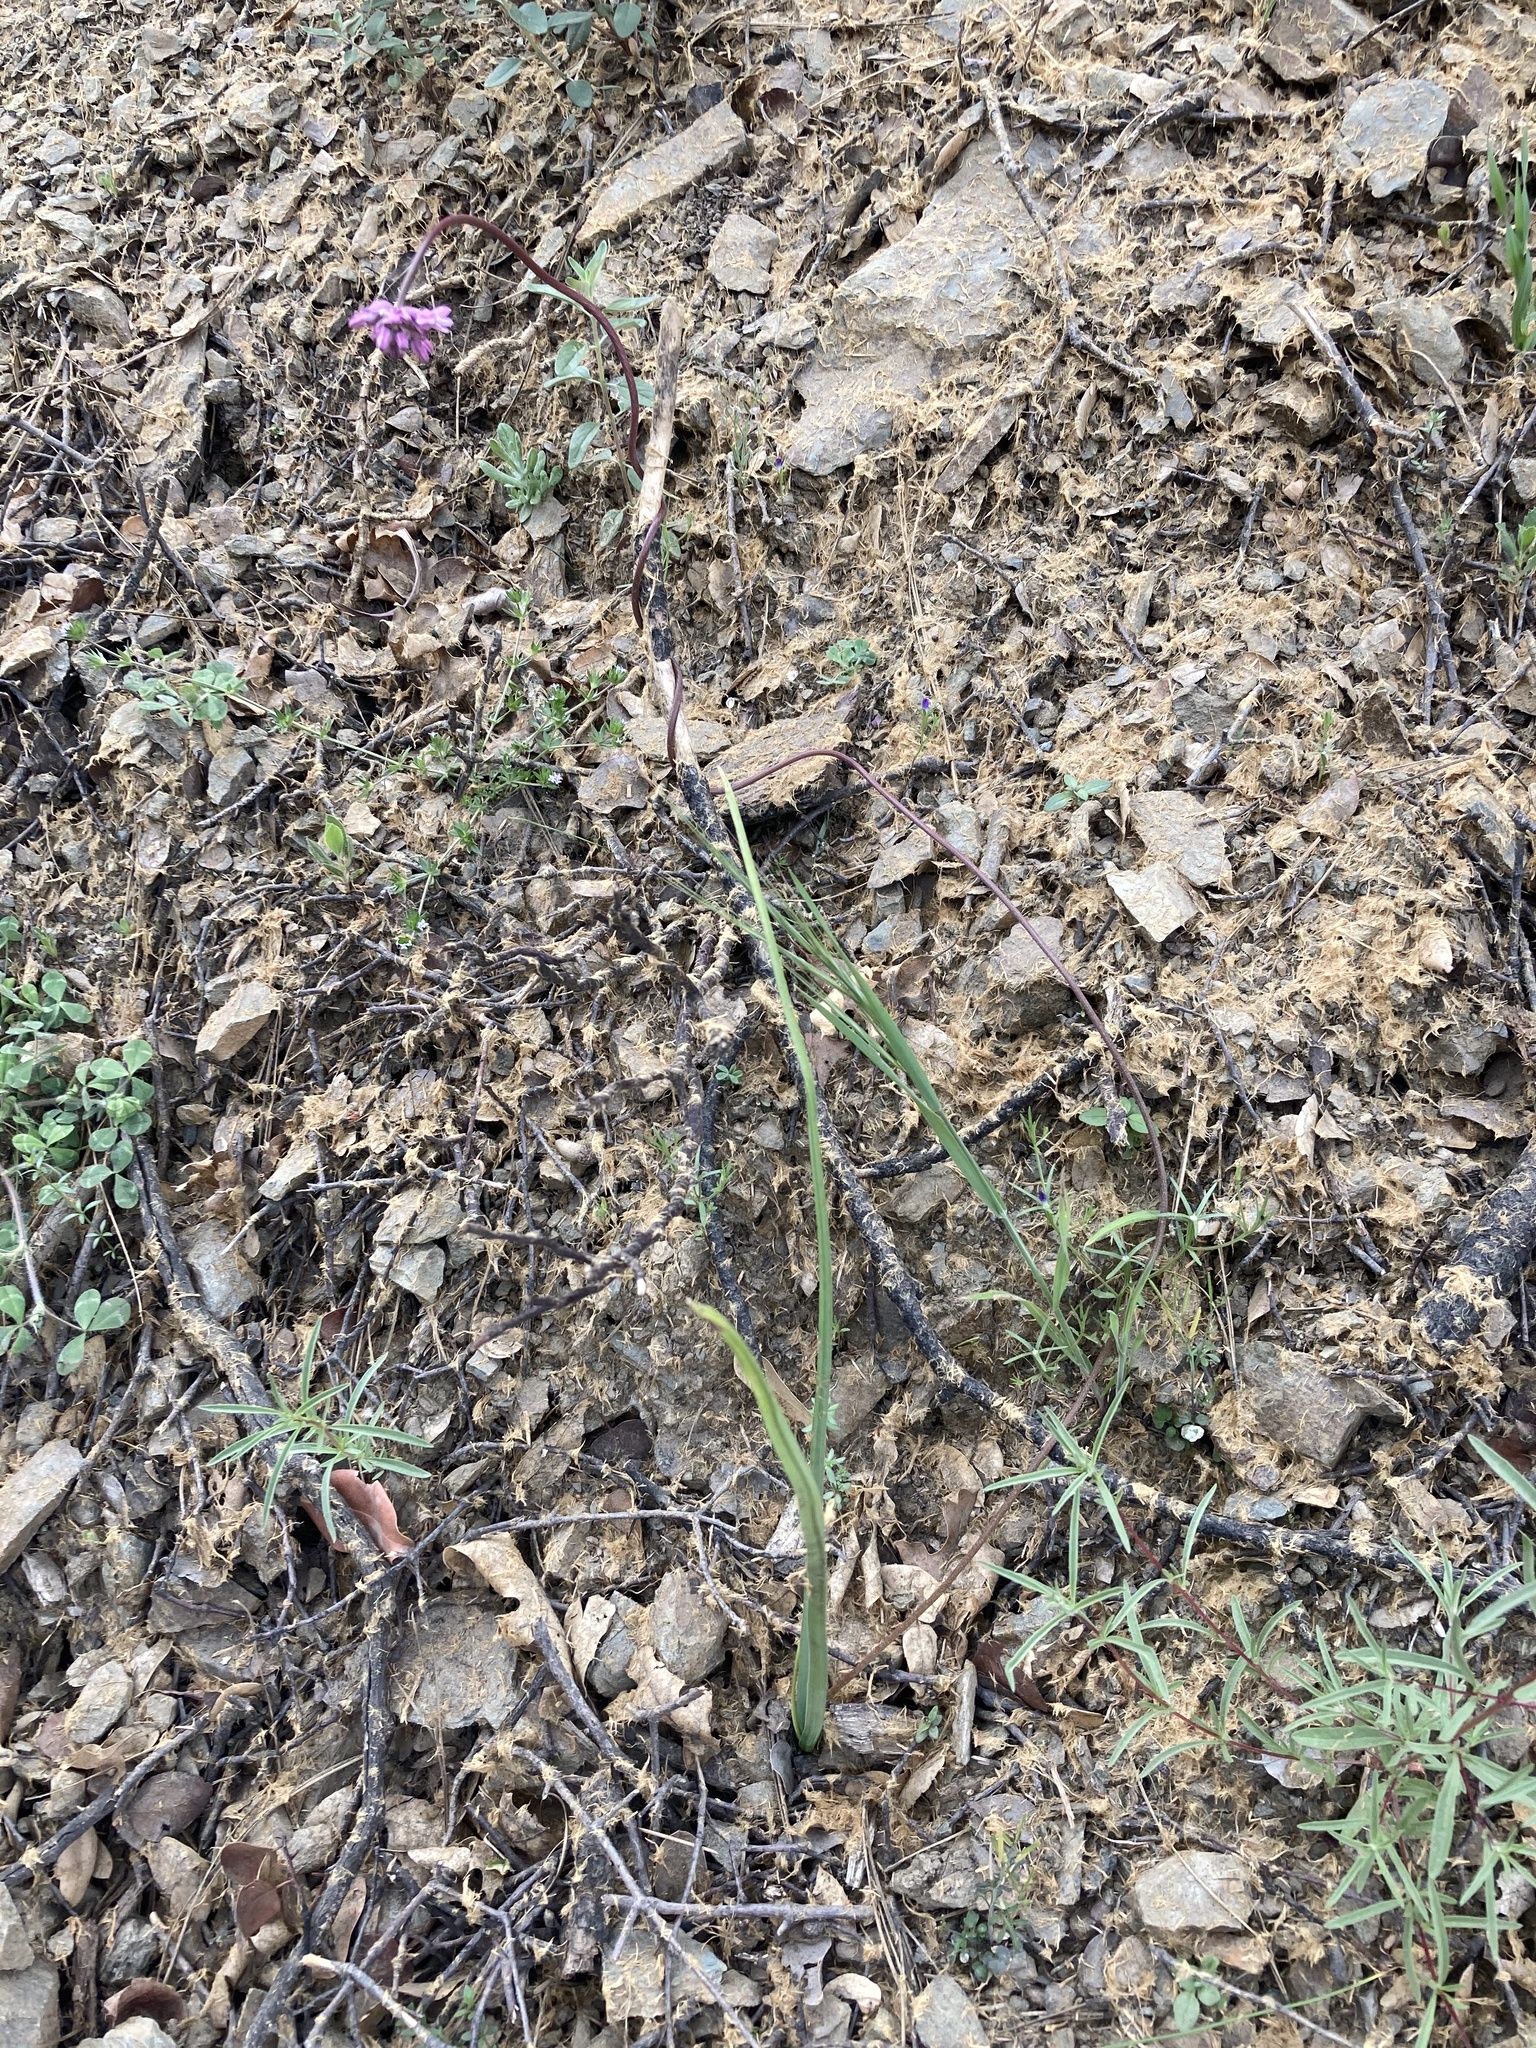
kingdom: Plantae
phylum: Tracheophyta
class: Liliopsida
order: Asparagales
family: Asparagaceae
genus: Dichelostemma
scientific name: Dichelostemma volubile
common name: Trining brodiaea
